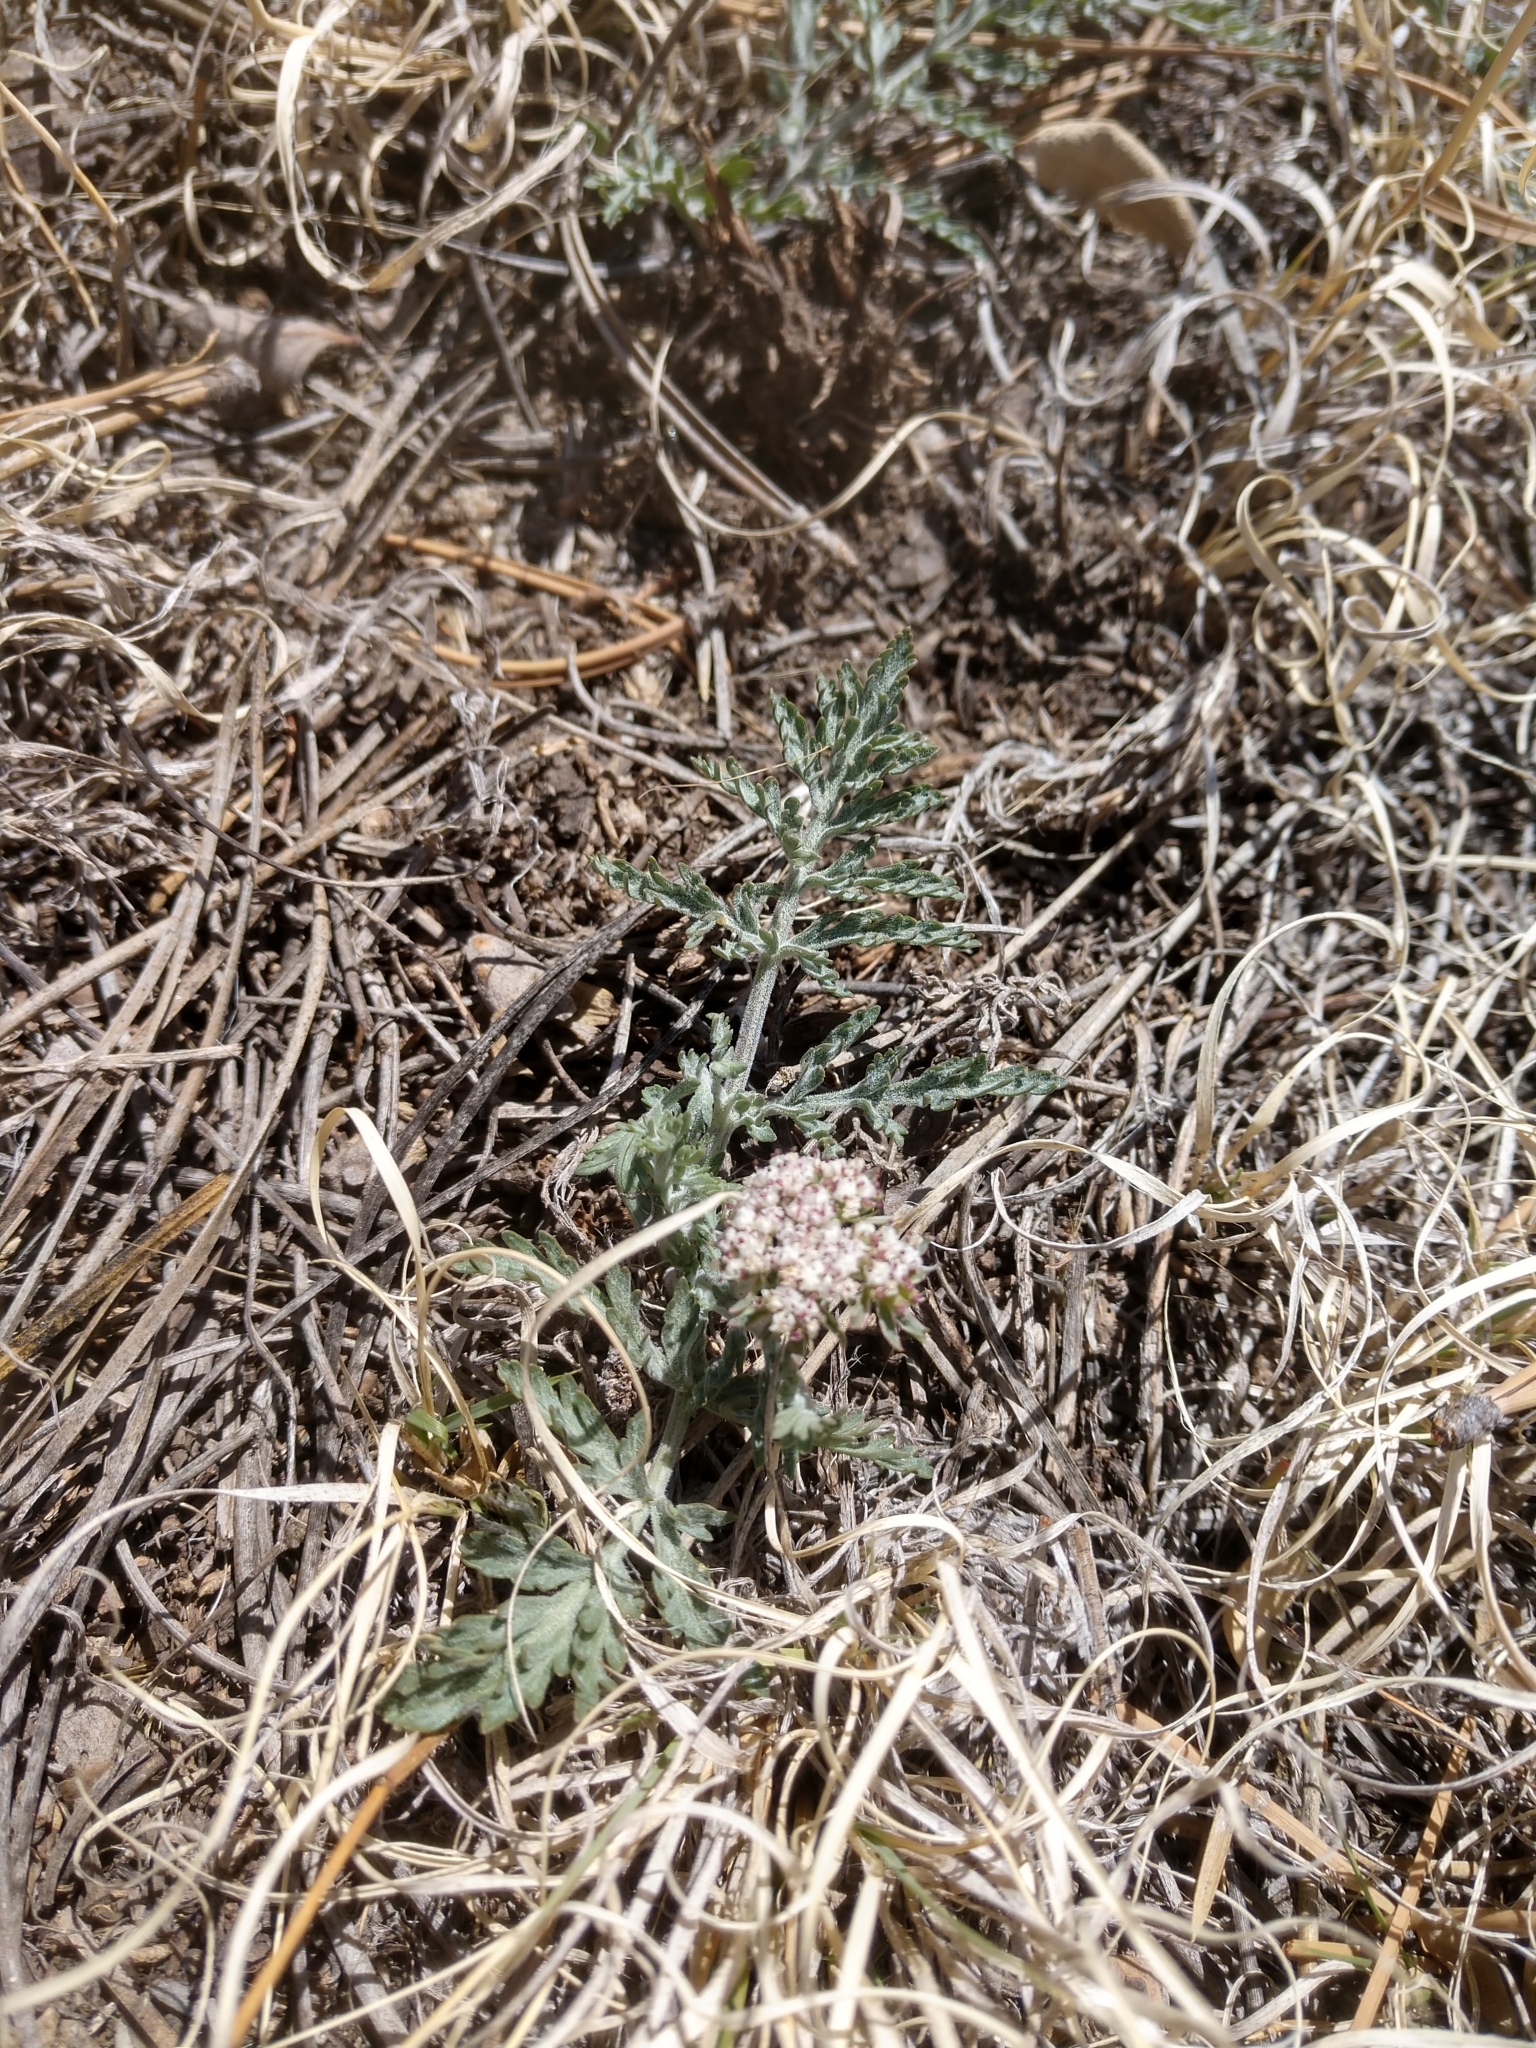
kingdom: Plantae
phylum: Tracheophyta
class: Magnoliopsida
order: Apiales
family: Apiaceae
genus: Lomatium
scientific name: Lomatium orientale
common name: Eastern cous
